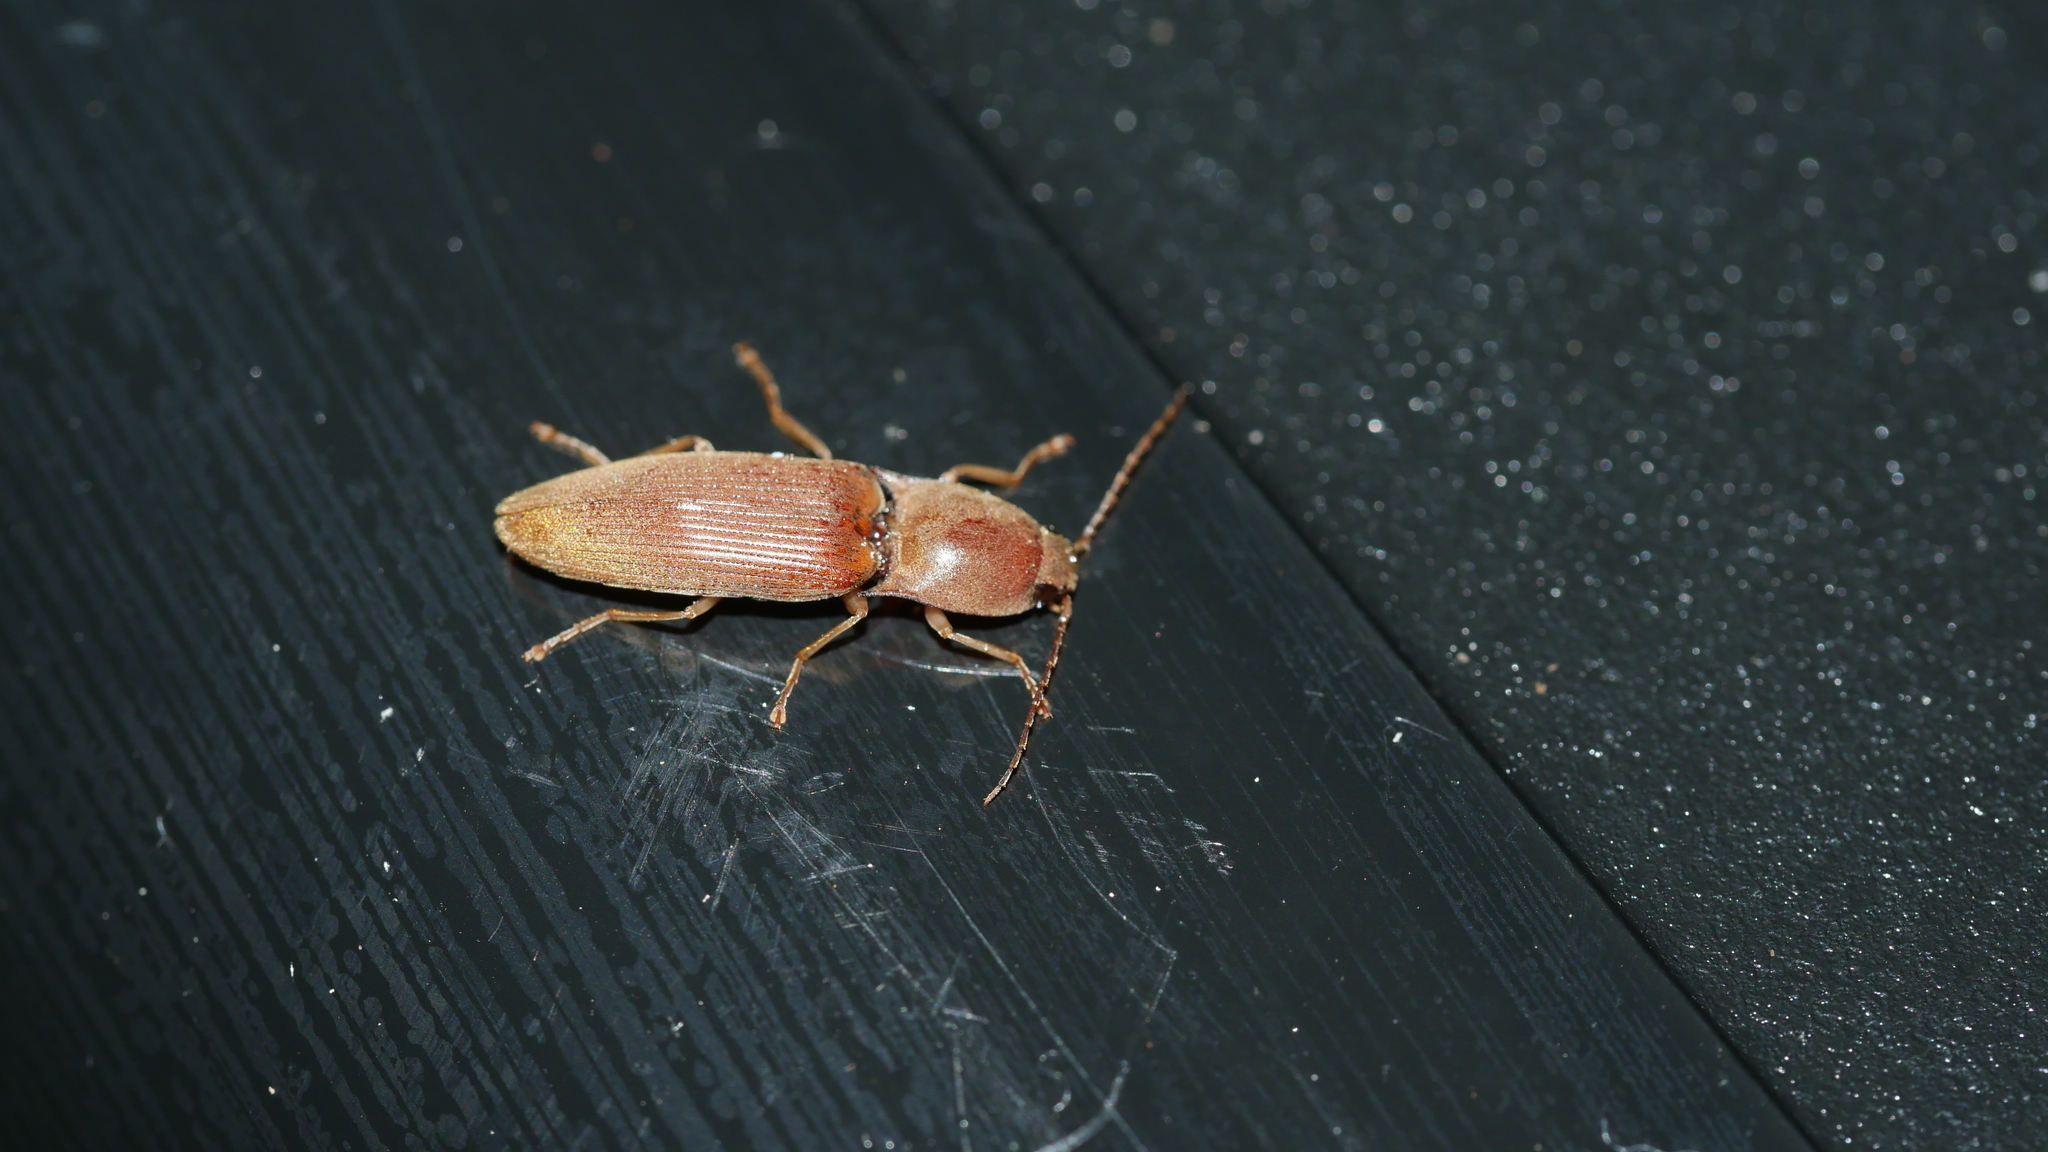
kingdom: Animalia
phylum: Arthropoda
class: Insecta
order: Coleoptera
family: Elateridae
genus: Monocrepidius
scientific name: Monocrepidius lividus
